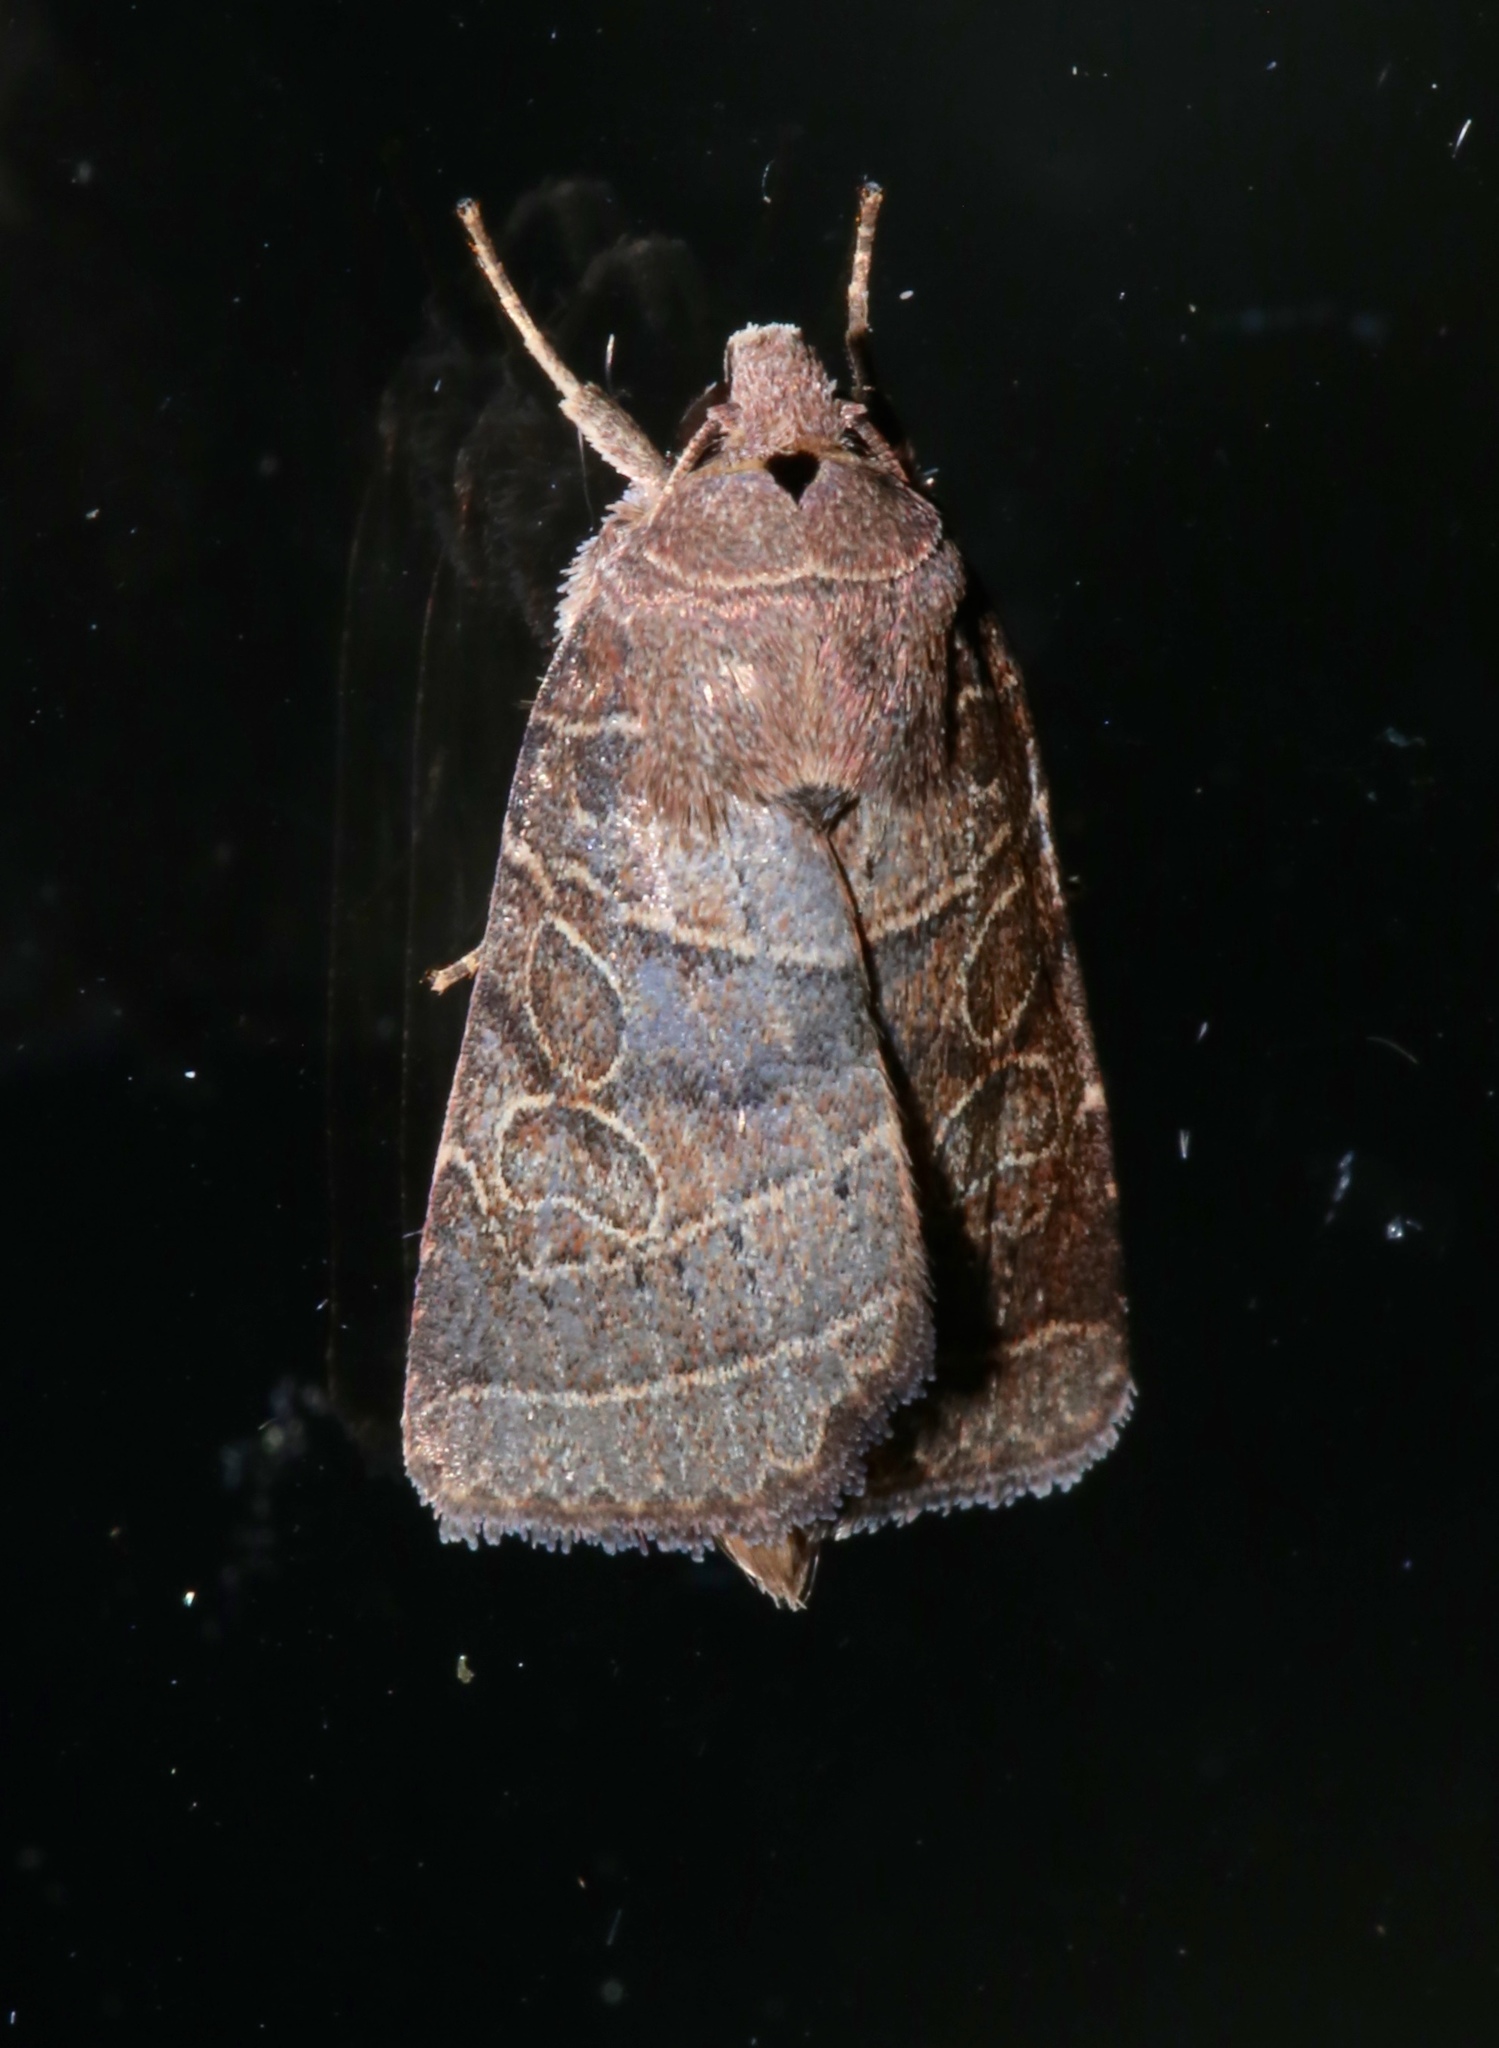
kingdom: Animalia
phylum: Arthropoda
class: Insecta
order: Lepidoptera
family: Noctuidae
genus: Orthodes
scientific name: Orthodes majuscula
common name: Rustic quaker
